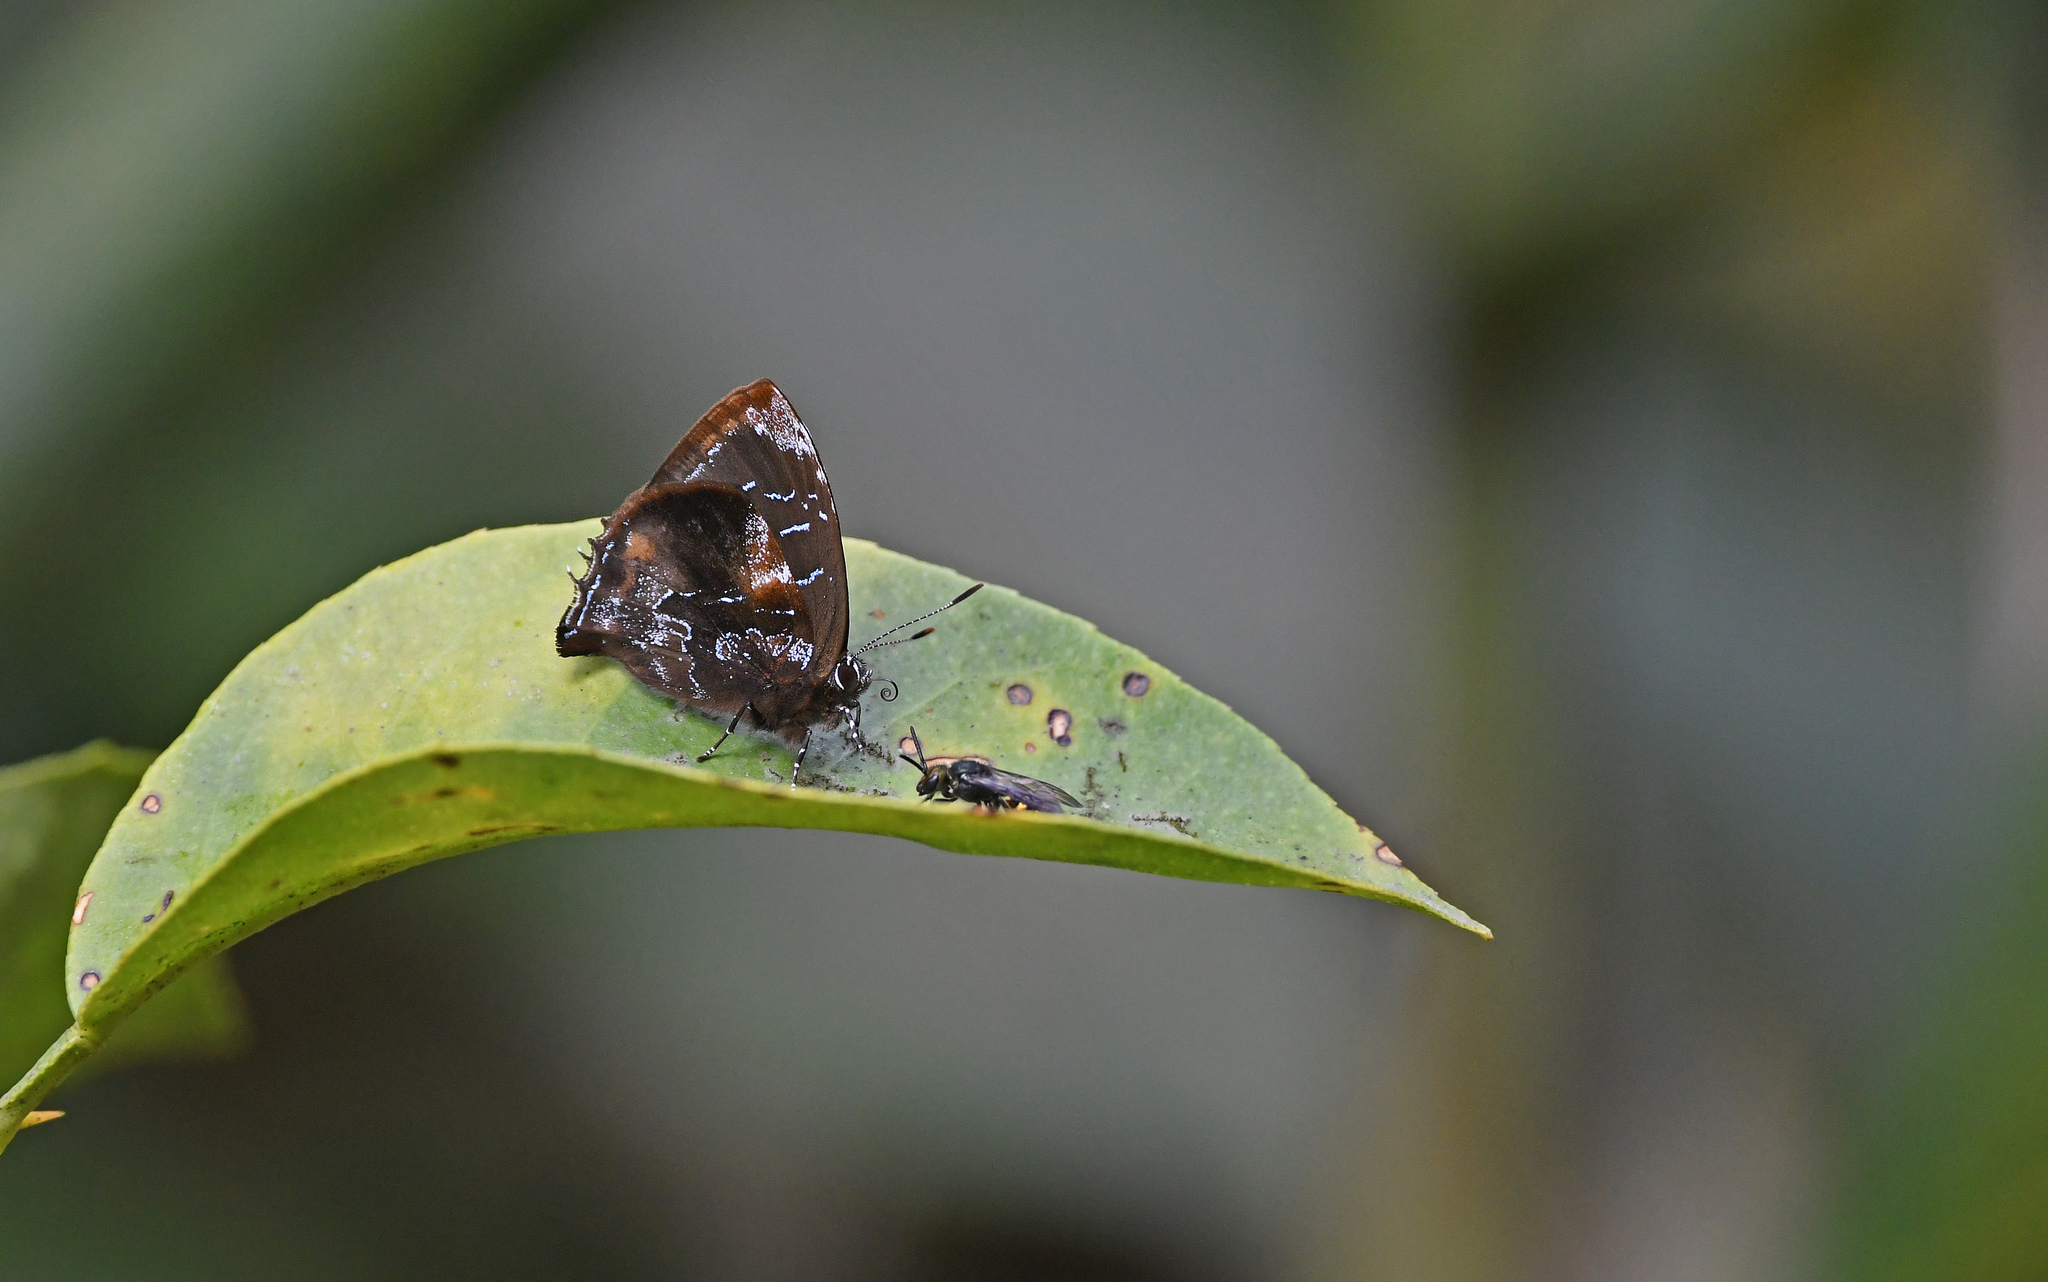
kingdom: Animalia
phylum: Arthropoda
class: Insecta
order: Lepidoptera
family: Lycaenidae
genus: Ocaria
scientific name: Ocaria
